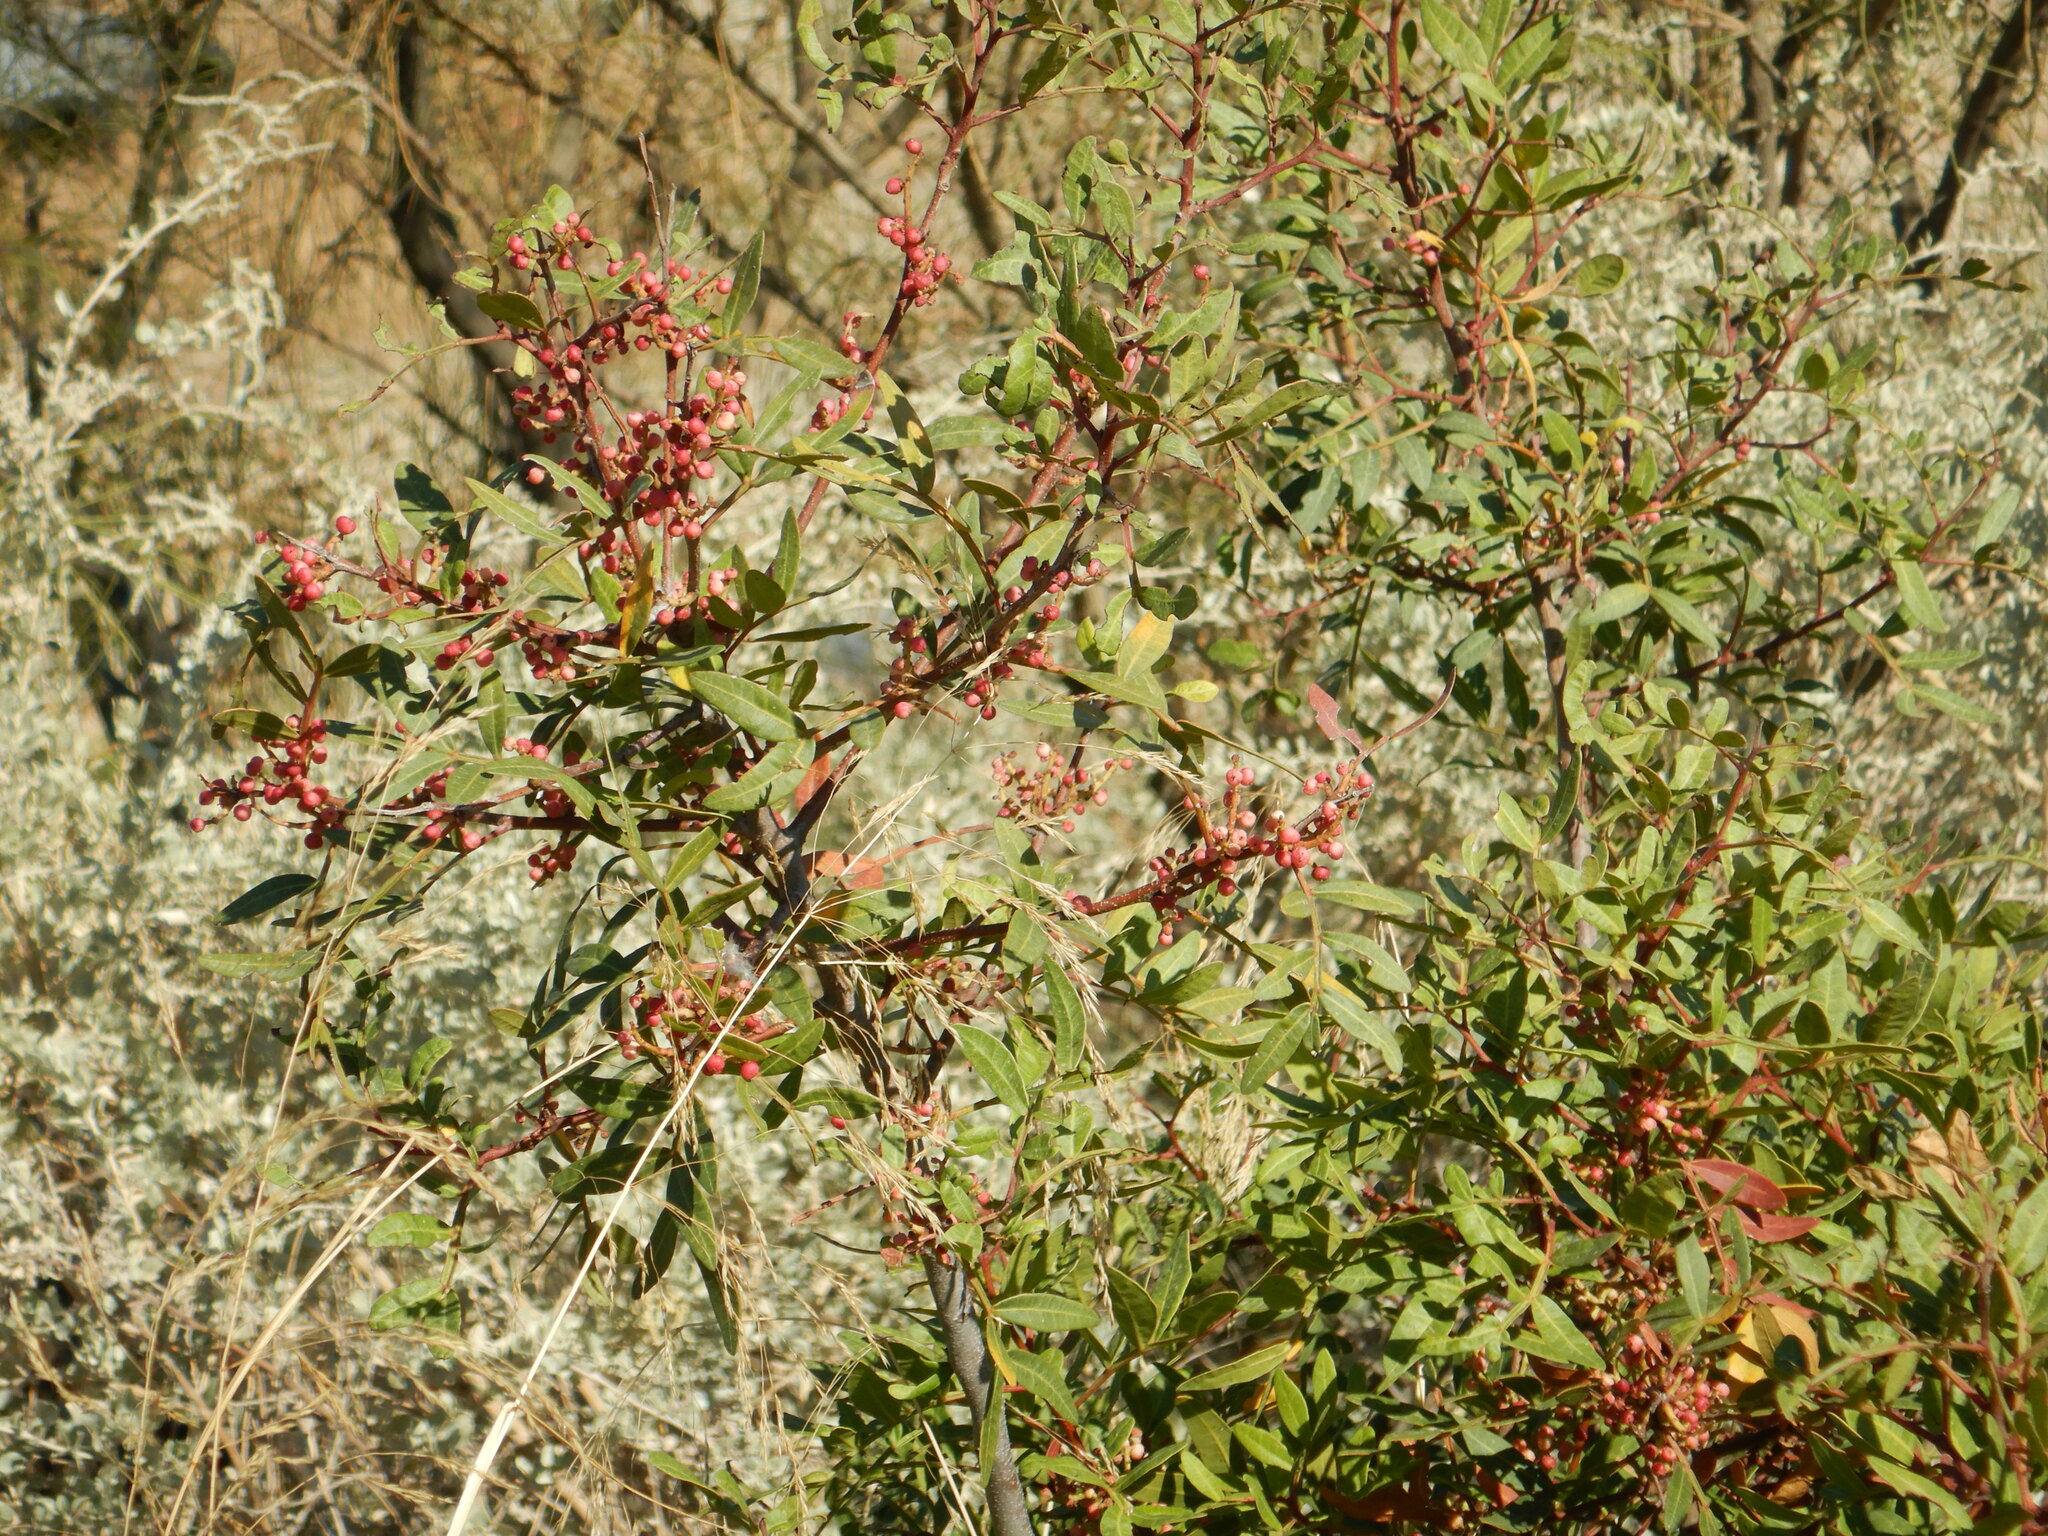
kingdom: Plantae
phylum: Tracheophyta
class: Magnoliopsida
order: Sapindales
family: Anacardiaceae
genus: Pistacia
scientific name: Pistacia lentiscus
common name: Lentisk
